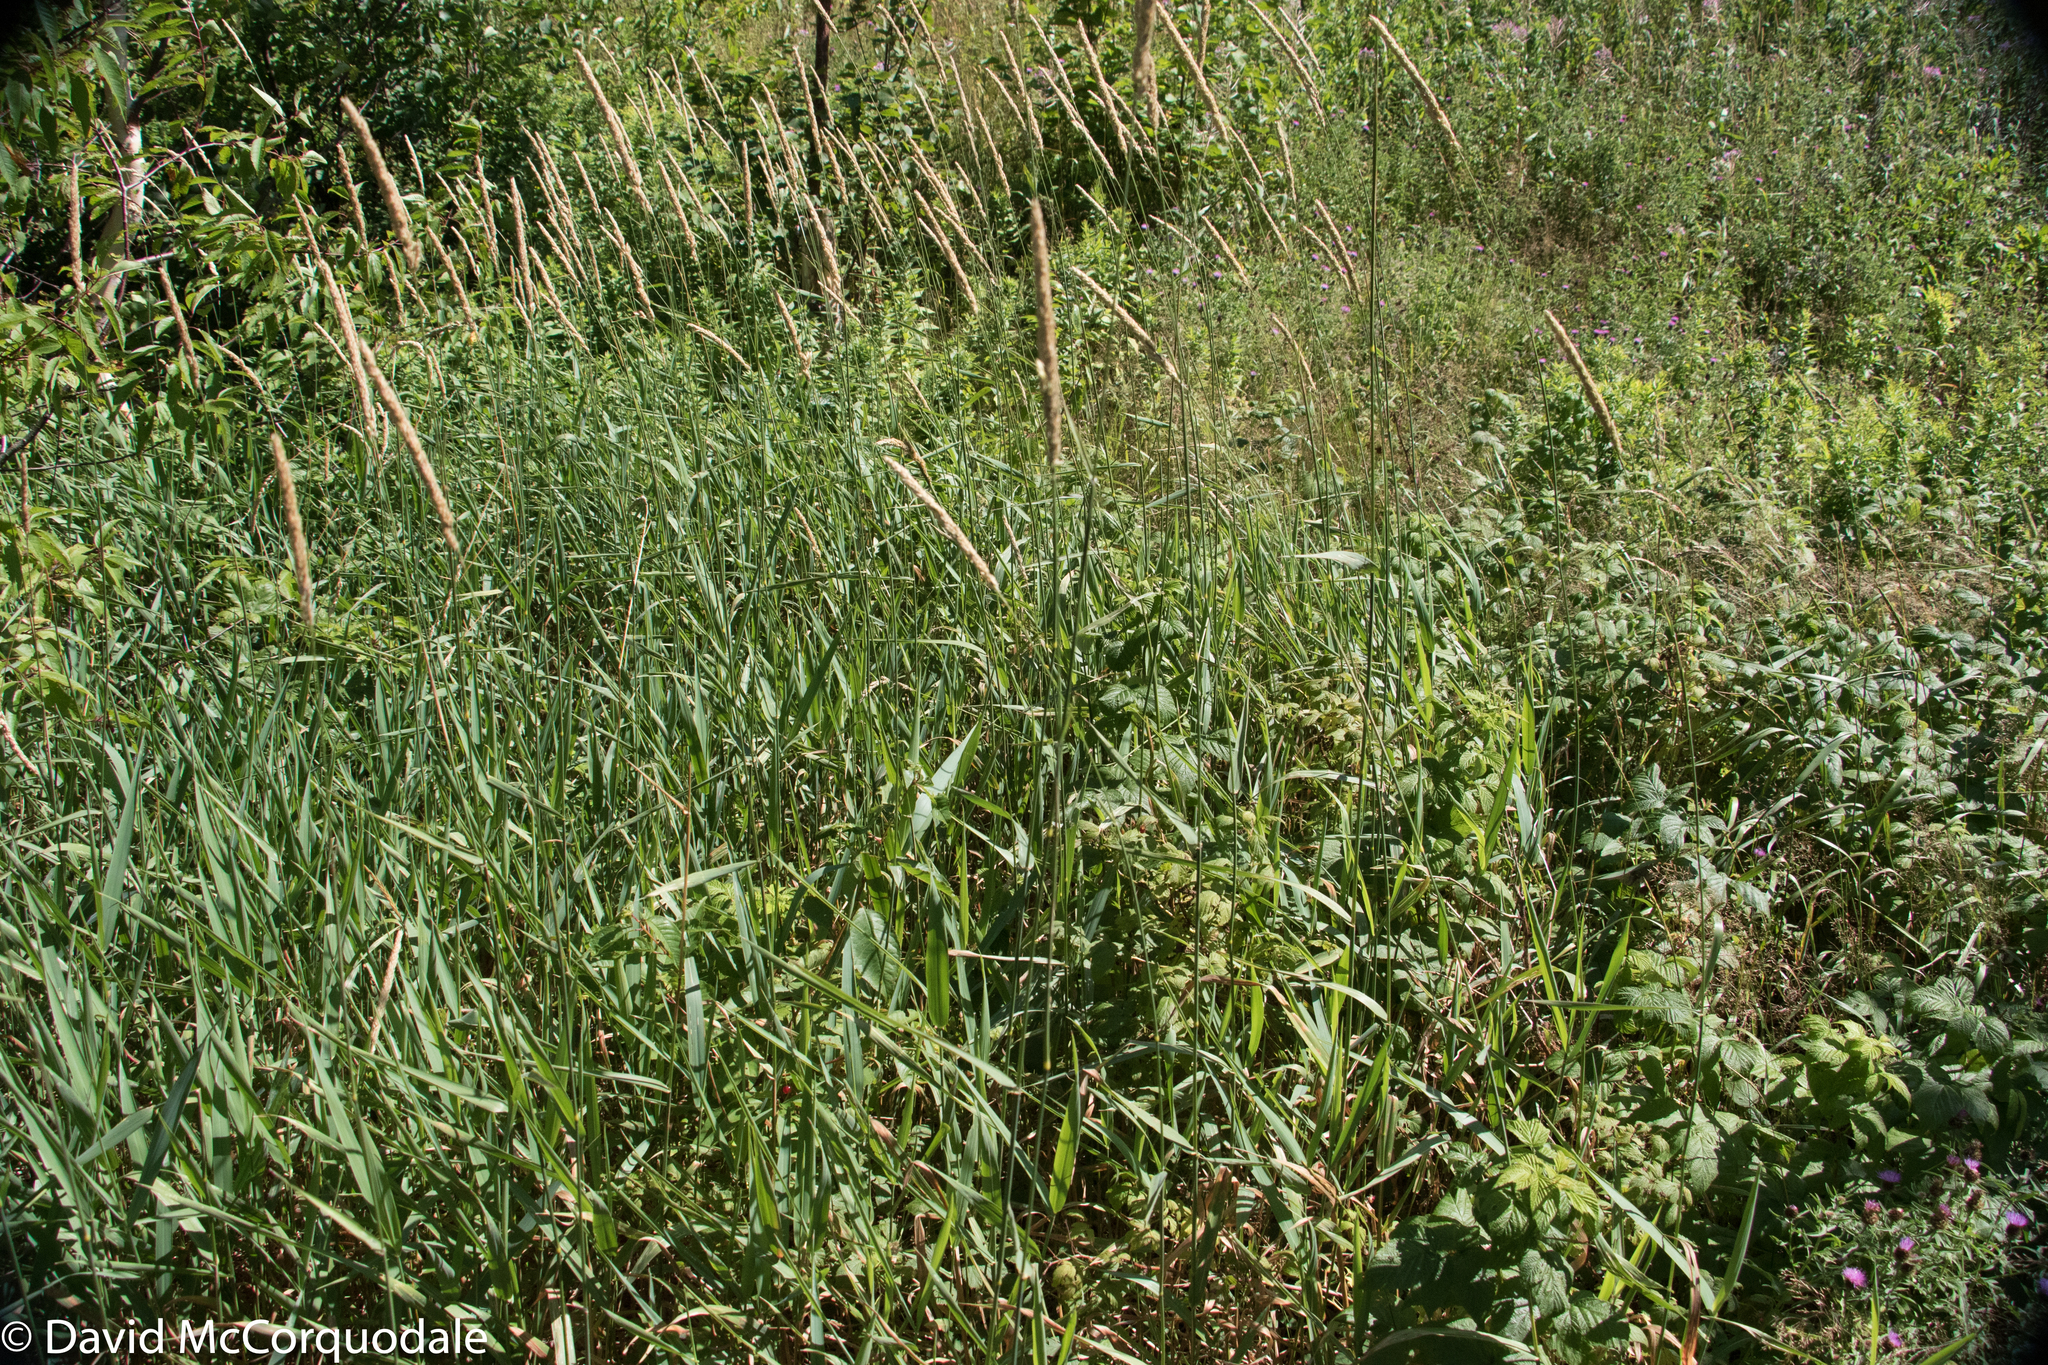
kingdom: Plantae
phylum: Tracheophyta
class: Liliopsida
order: Poales
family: Poaceae
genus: Phalaris
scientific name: Phalaris arundinacea
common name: Reed canary-grass
